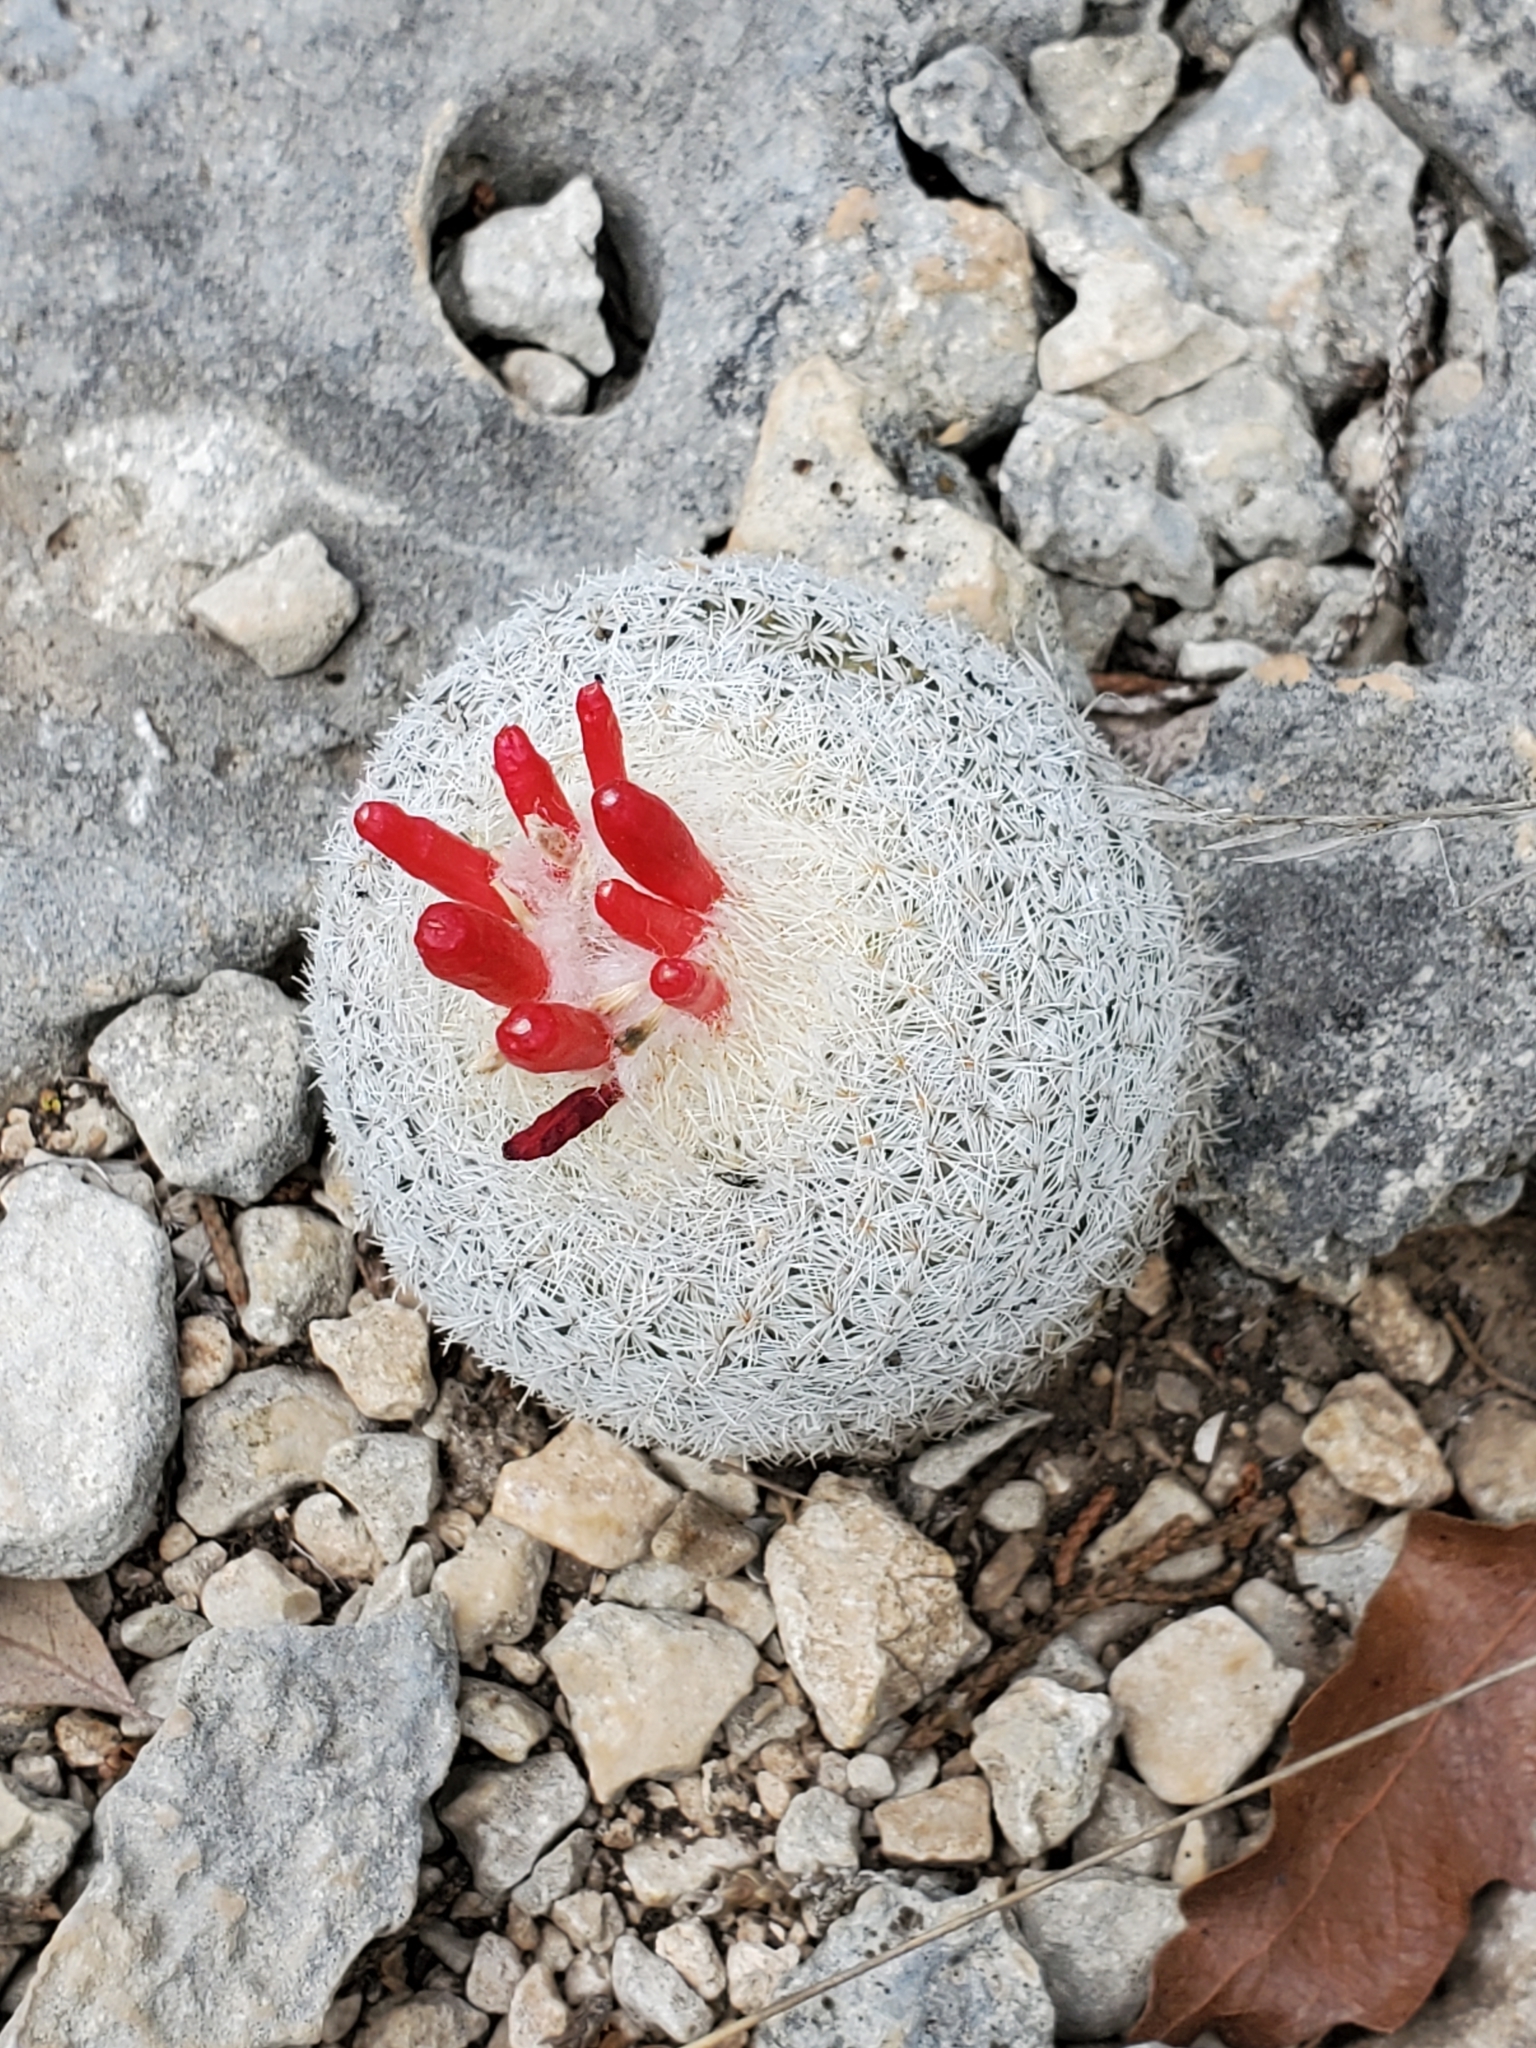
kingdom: Plantae
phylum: Tracheophyta
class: Magnoliopsida
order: Caryophyllales
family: Cactaceae
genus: Epithelantha
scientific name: Epithelantha micromeris
